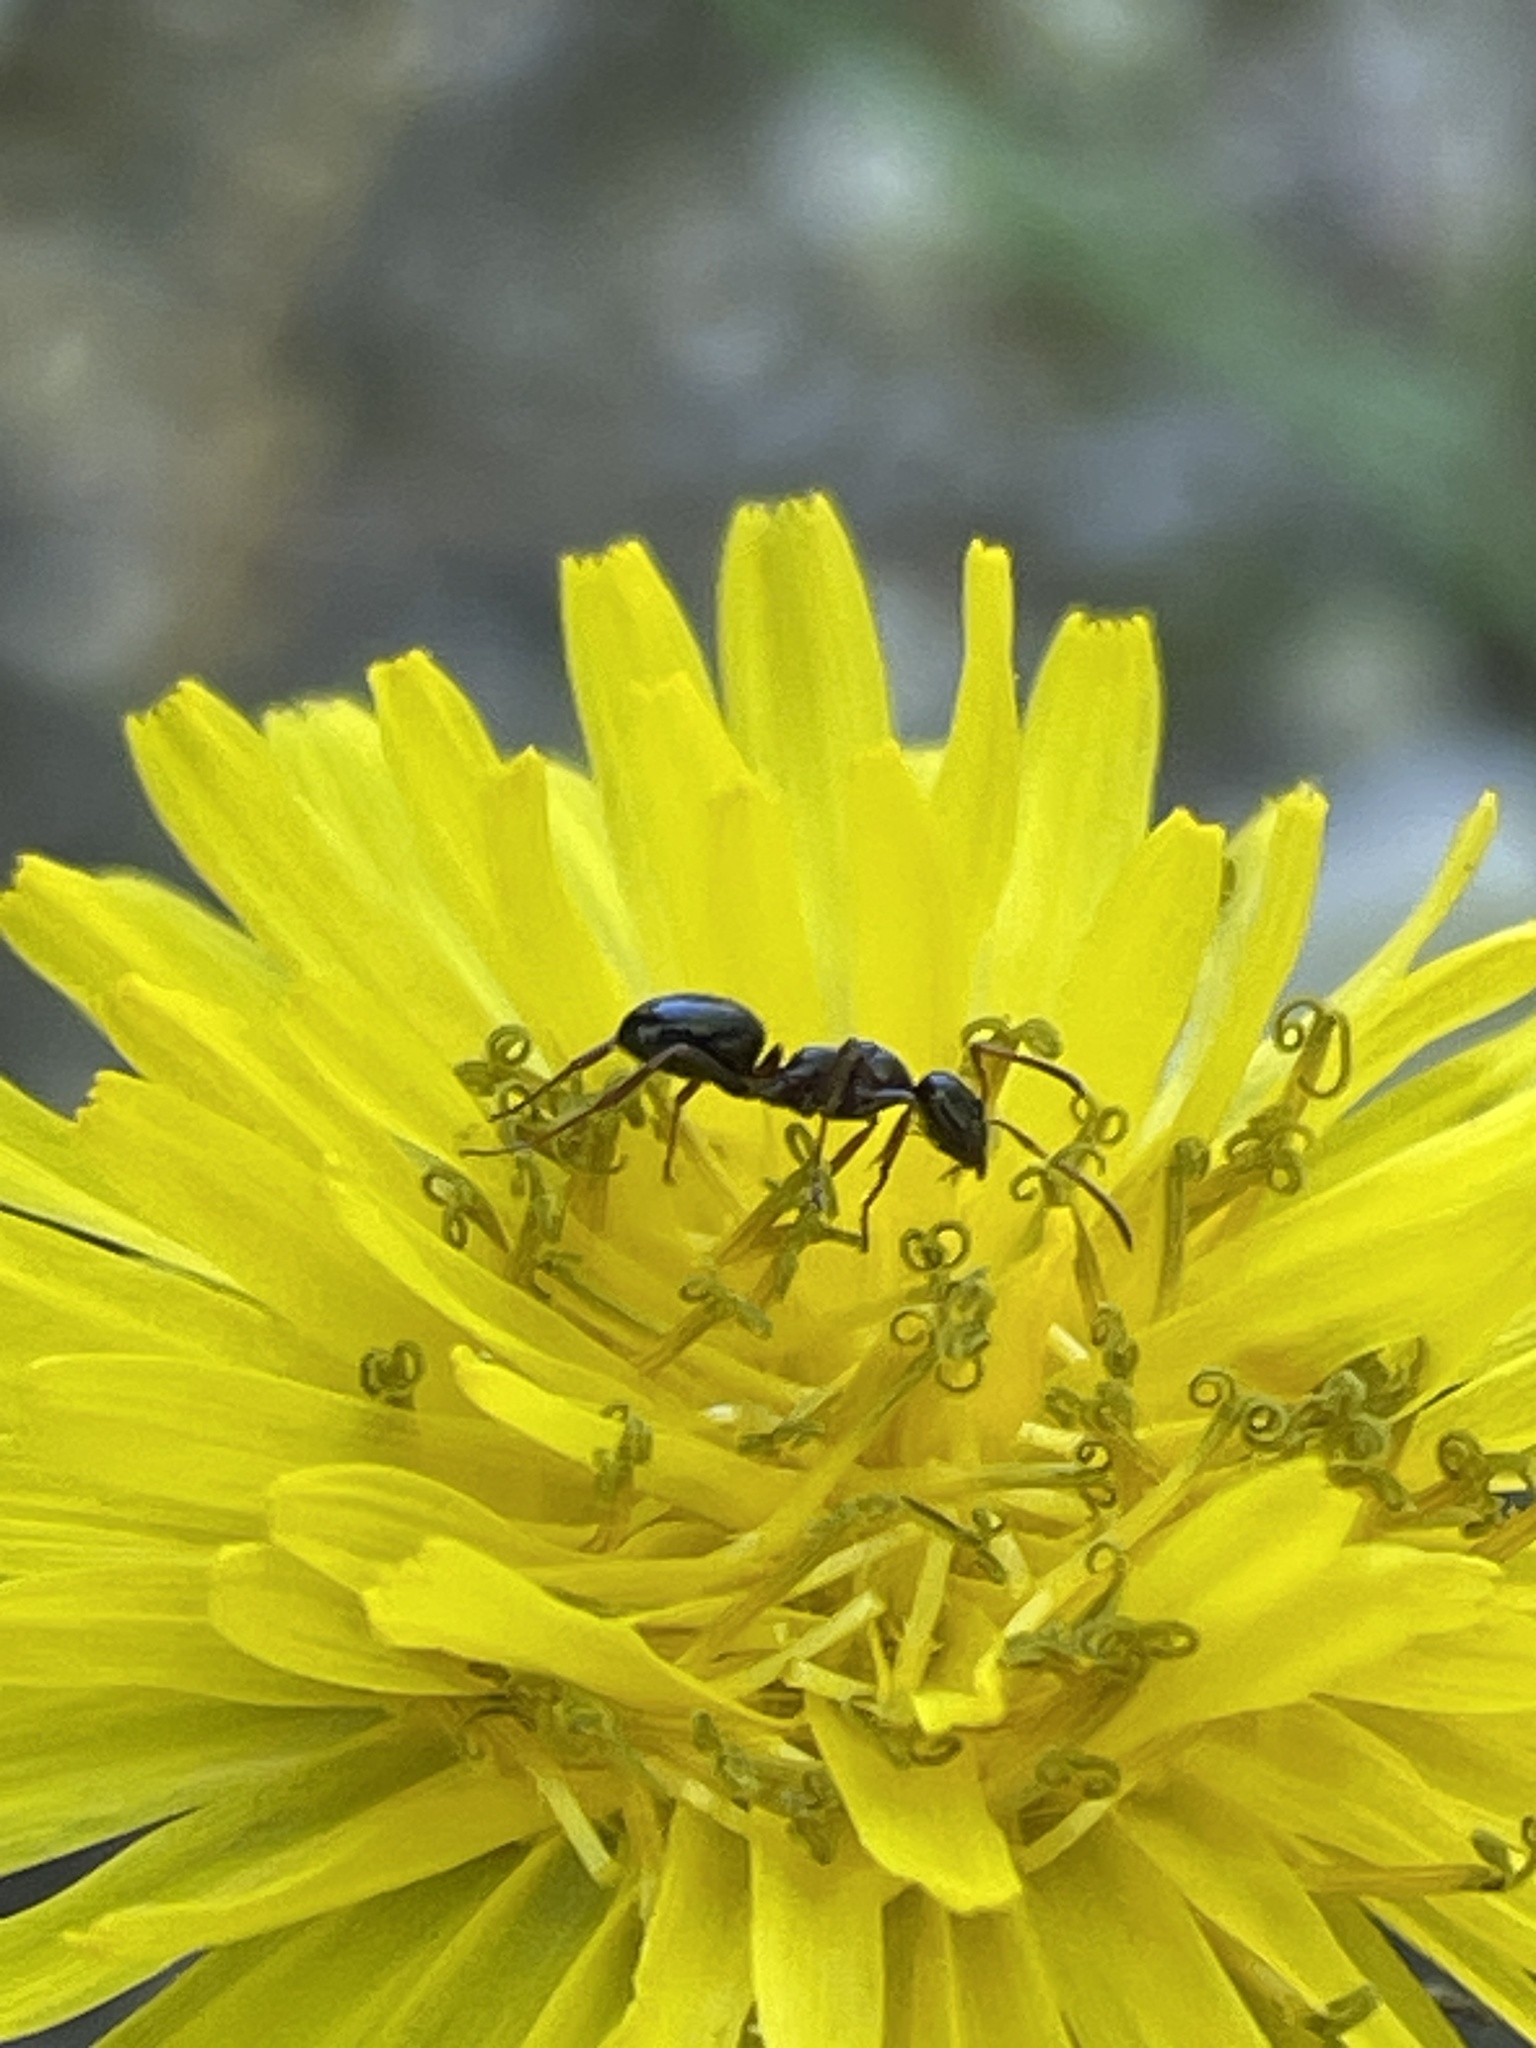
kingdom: Animalia
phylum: Arthropoda
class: Insecta
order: Hymenoptera
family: Formicidae
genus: Formica
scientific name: Formica
